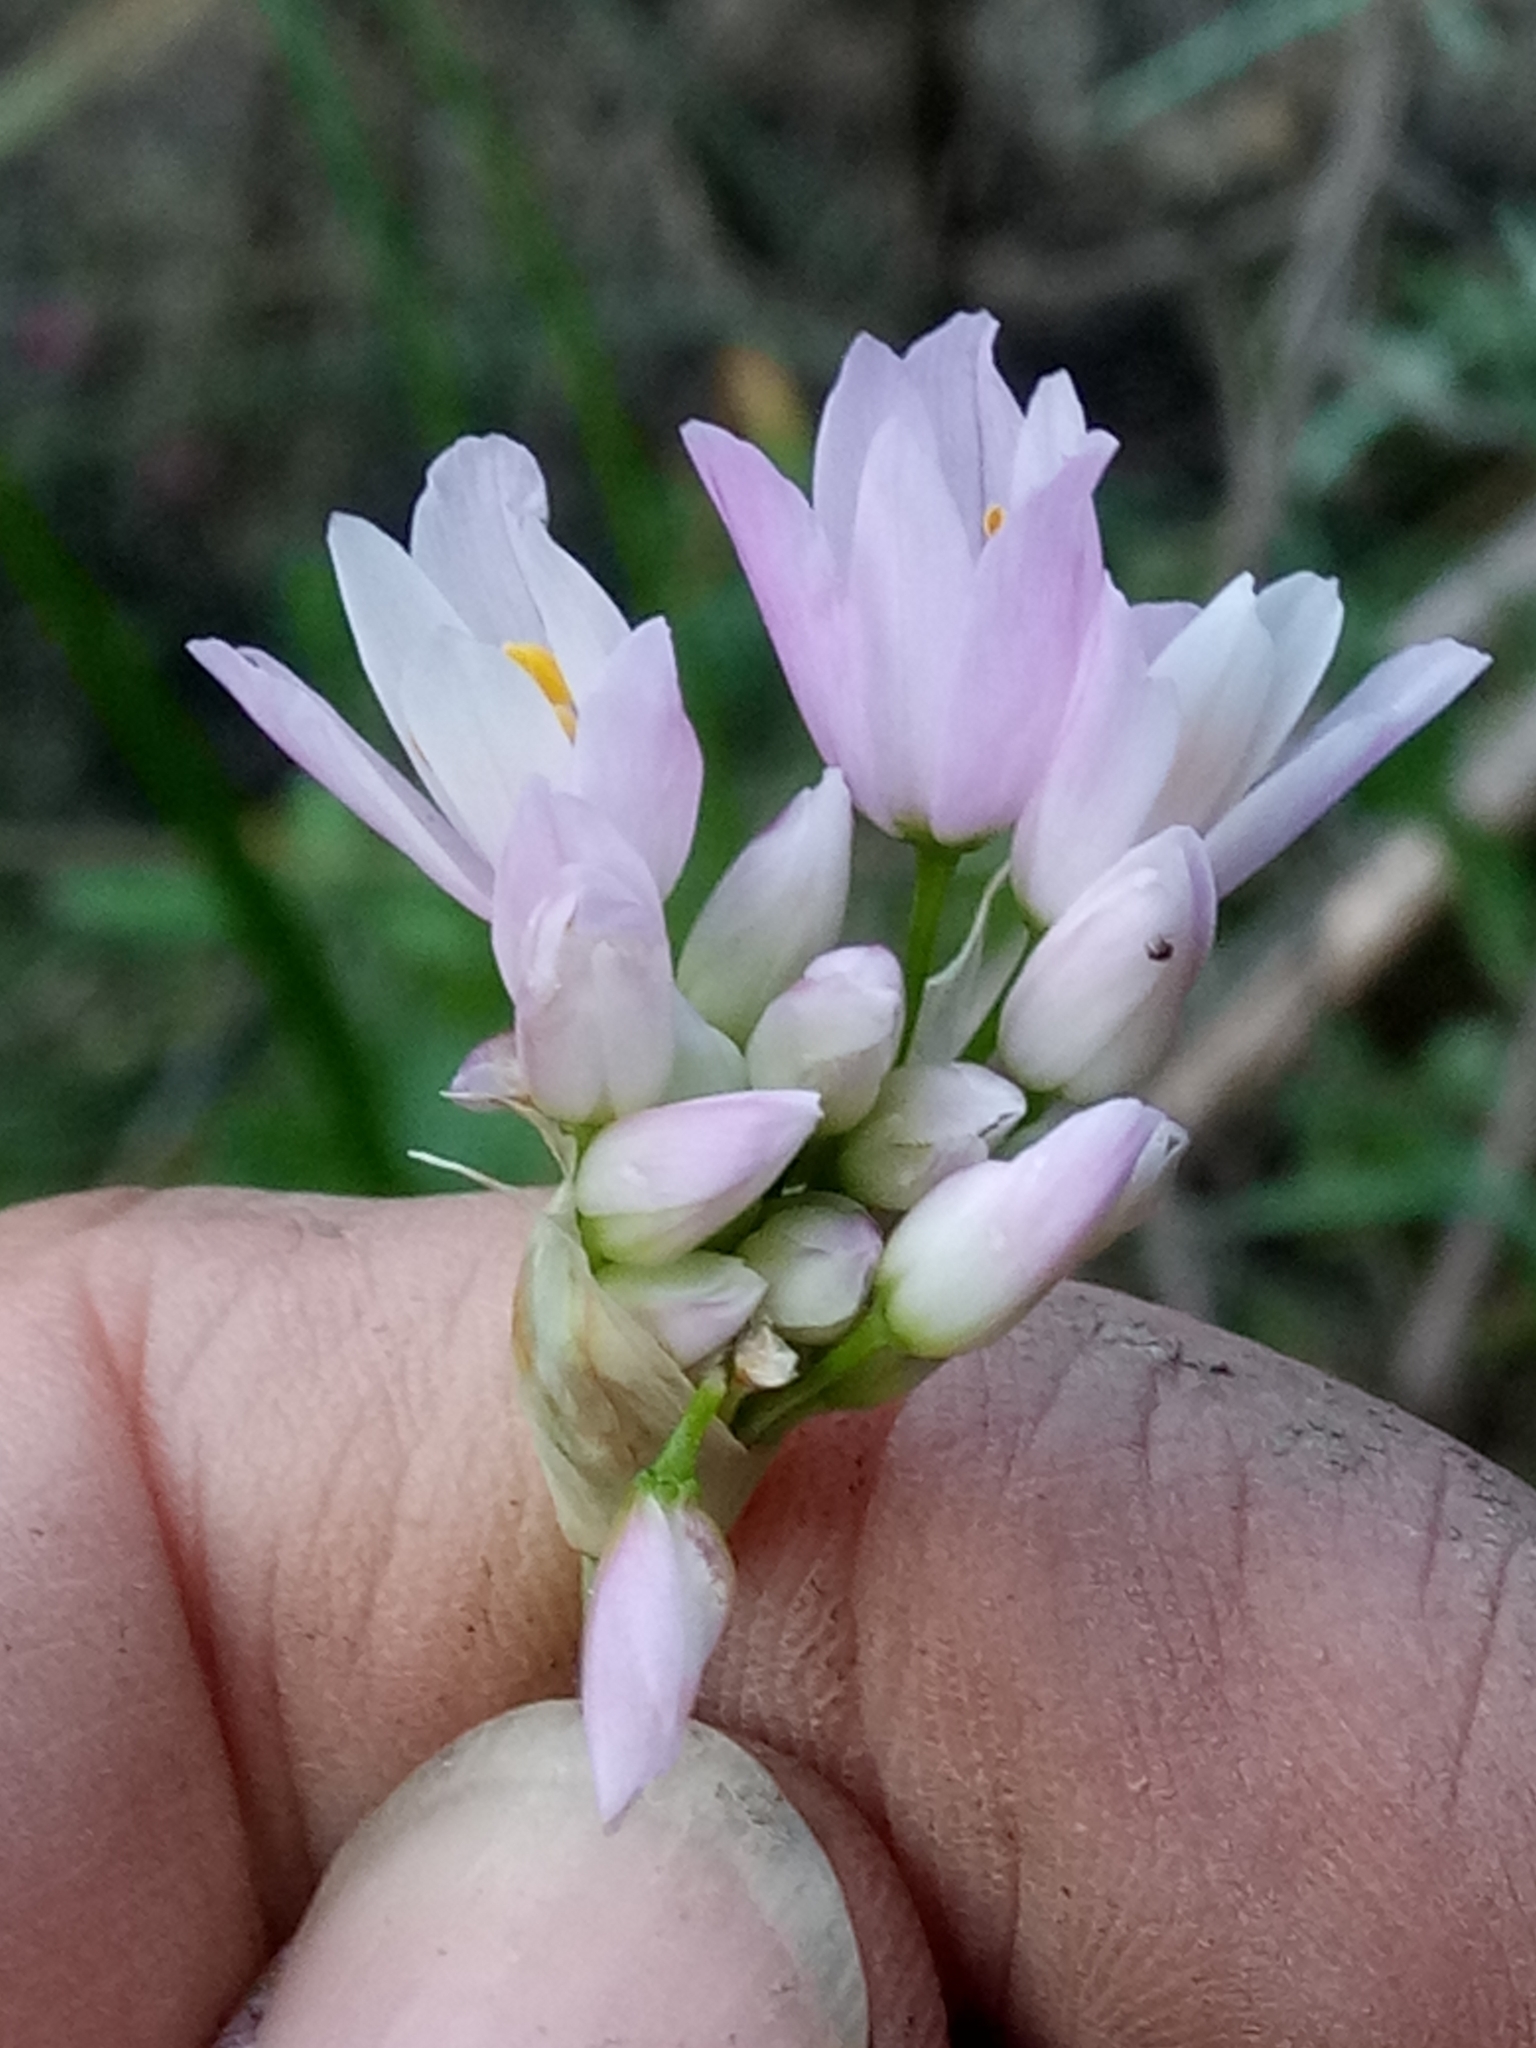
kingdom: Plantae
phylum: Tracheophyta
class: Liliopsida
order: Asparagales
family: Amaryllidaceae
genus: Allium
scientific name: Allium roseum
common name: Rosy garlic
